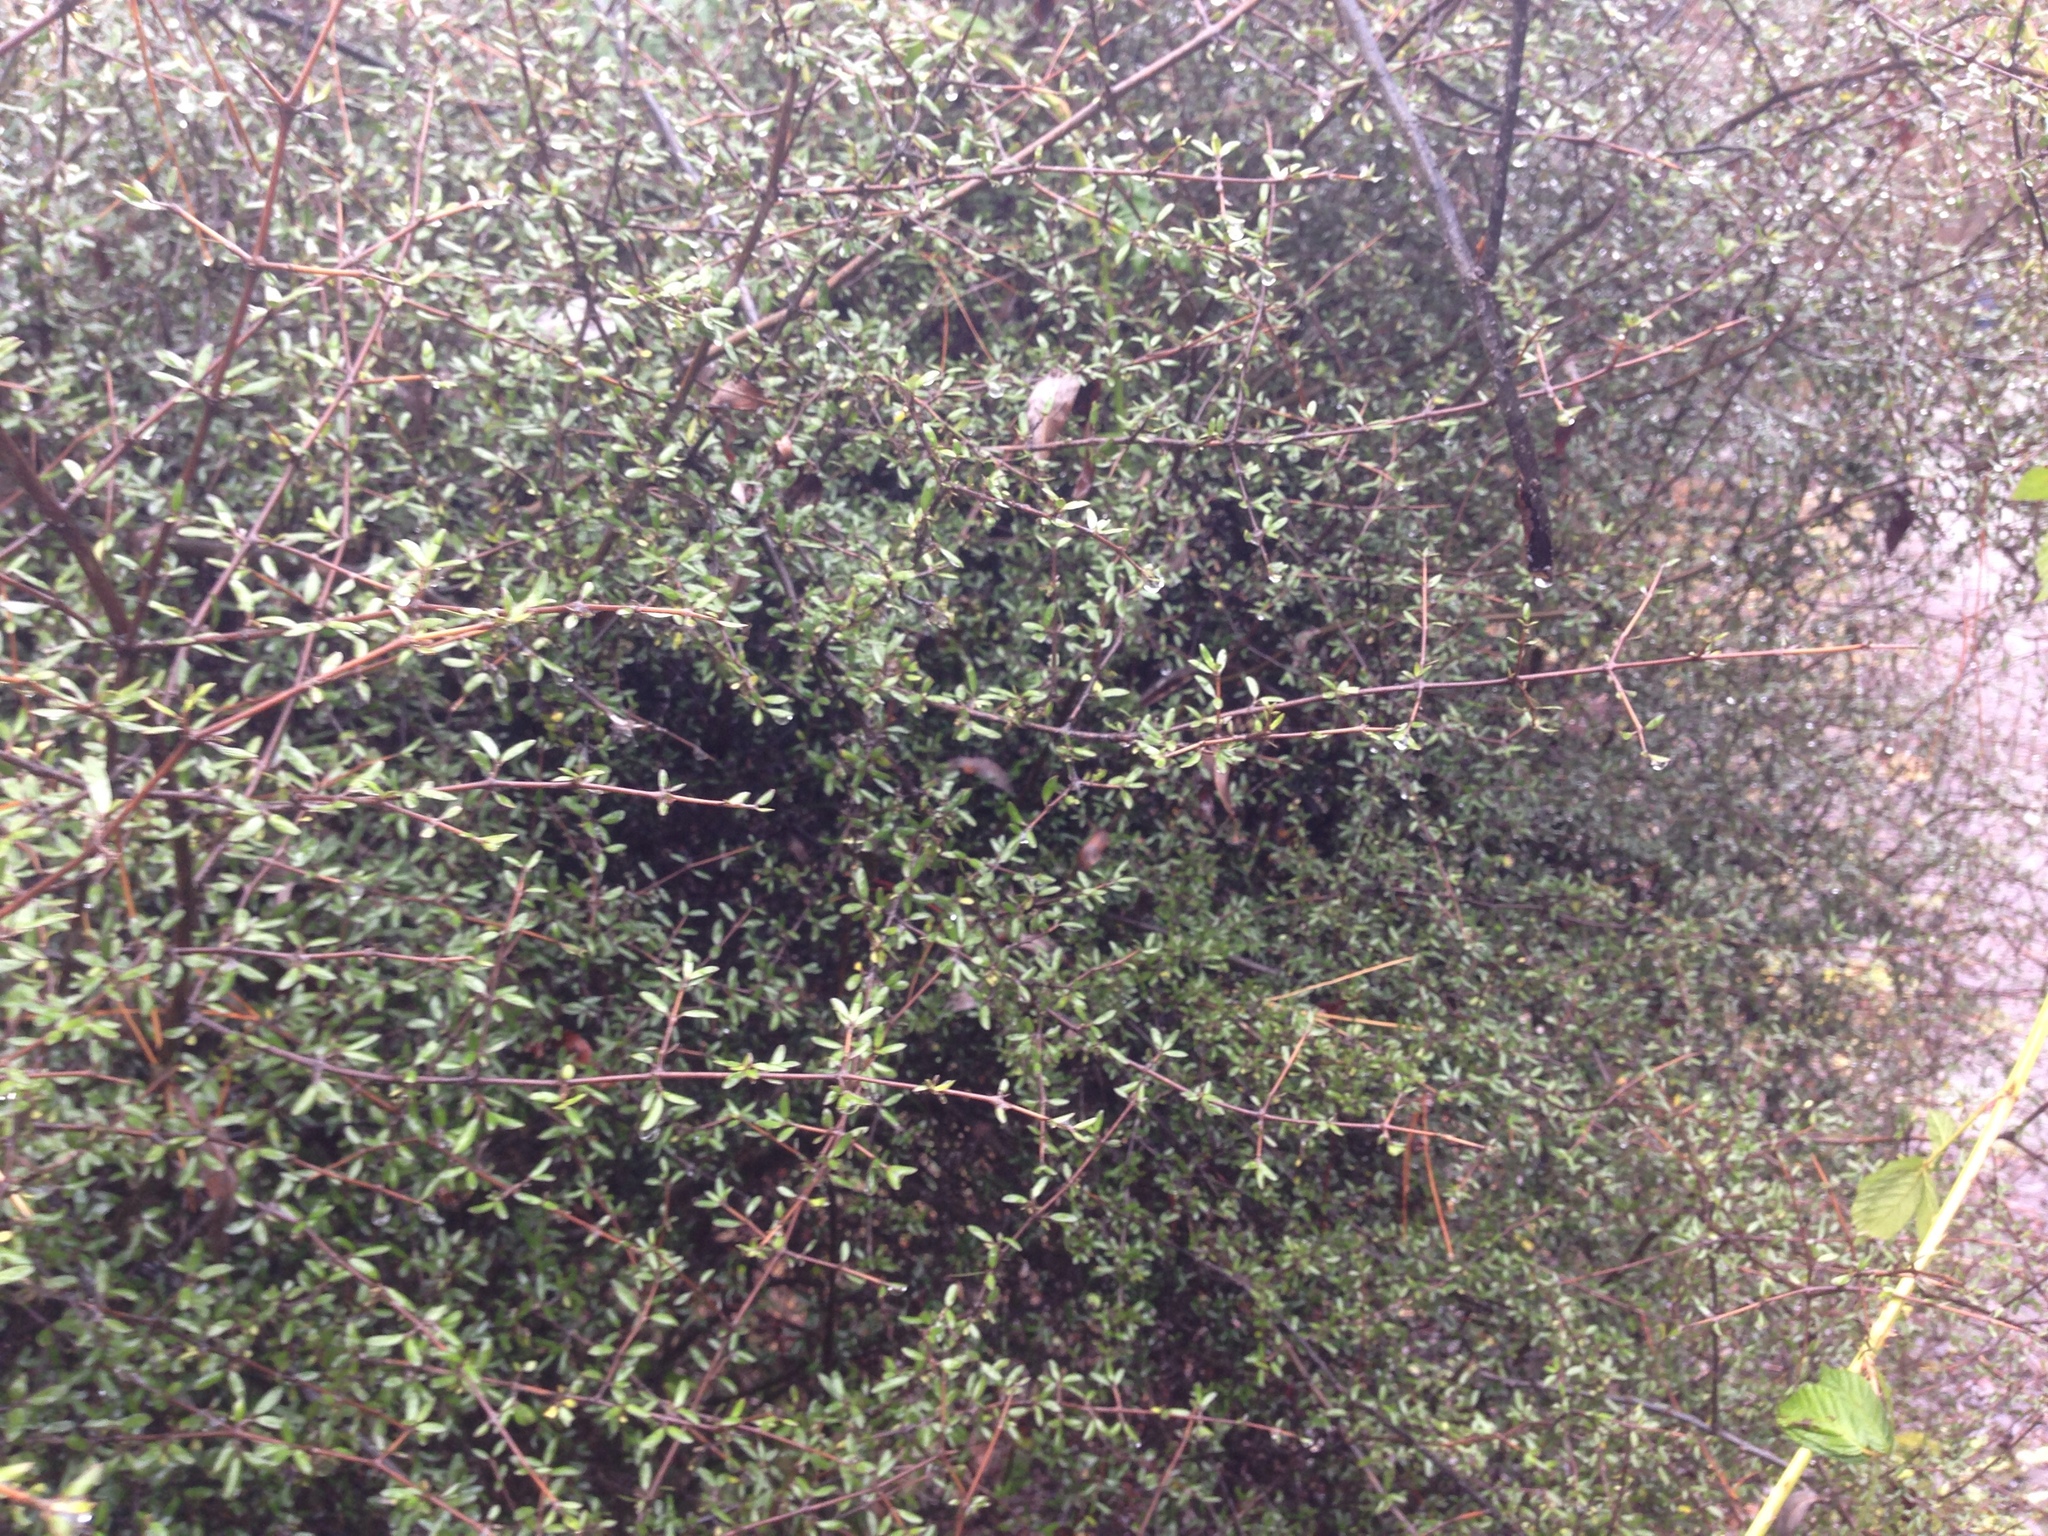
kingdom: Plantae
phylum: Tracheophyta
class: Magnoliopsida
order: Gentianales
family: Rubiaceae
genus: Coprosma
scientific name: Coprosma propinqua
